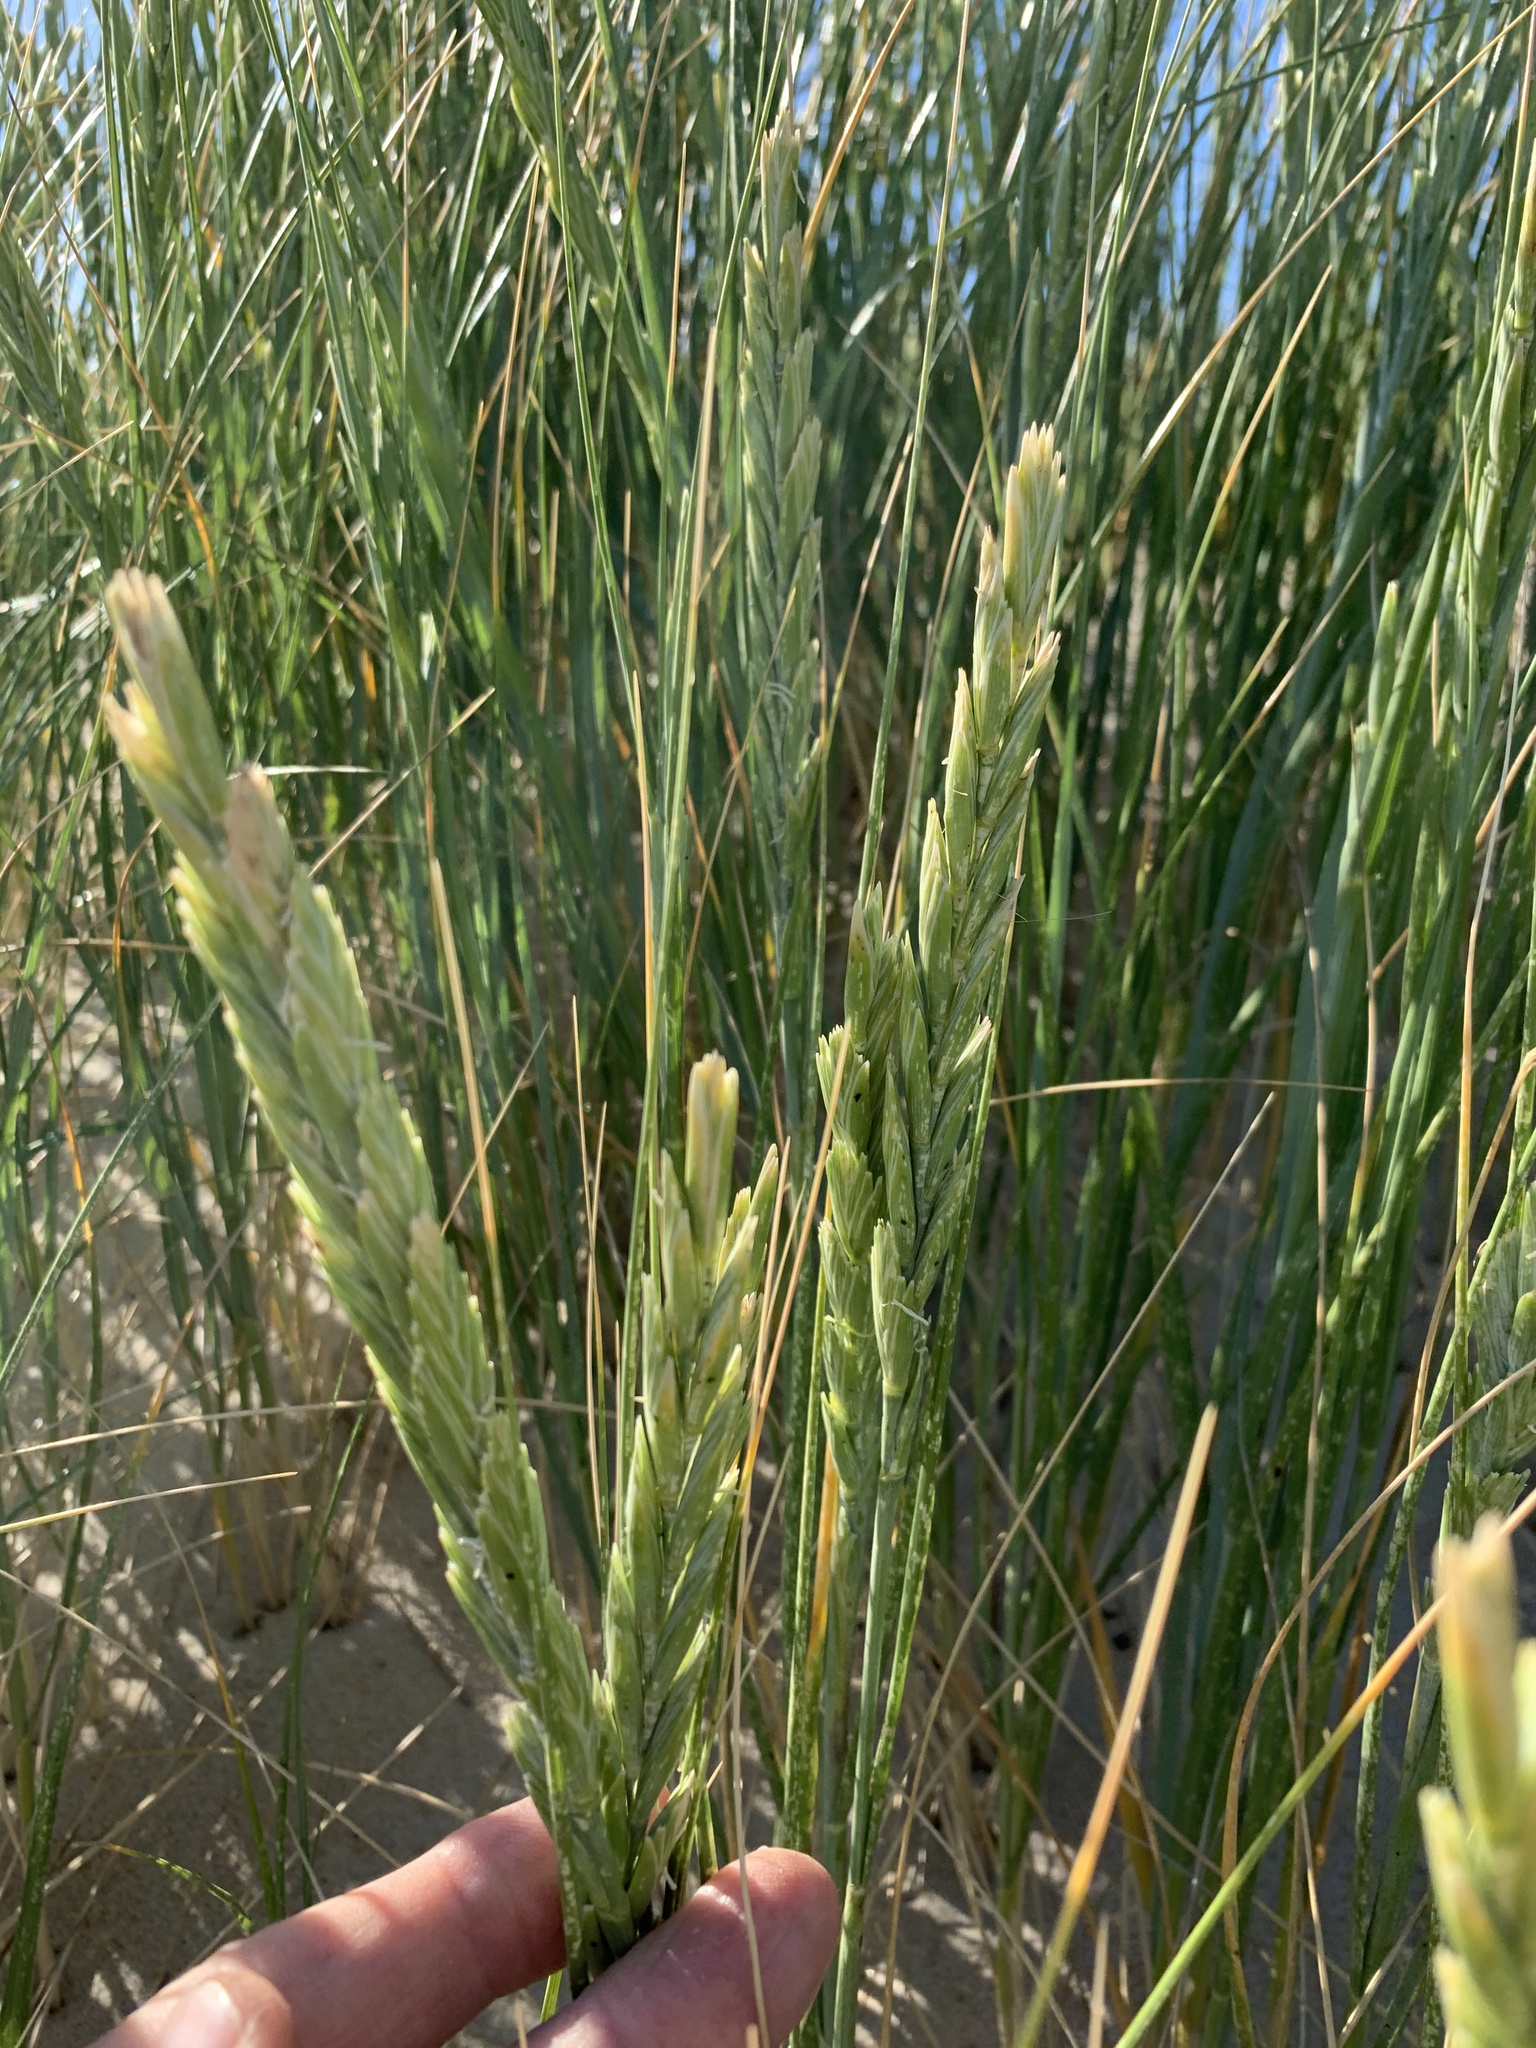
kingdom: Plantae
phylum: Tracheophyta
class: Liliopsida
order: Poales
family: Poaceae
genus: Thinopyrum
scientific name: Thinopyrum distichum
